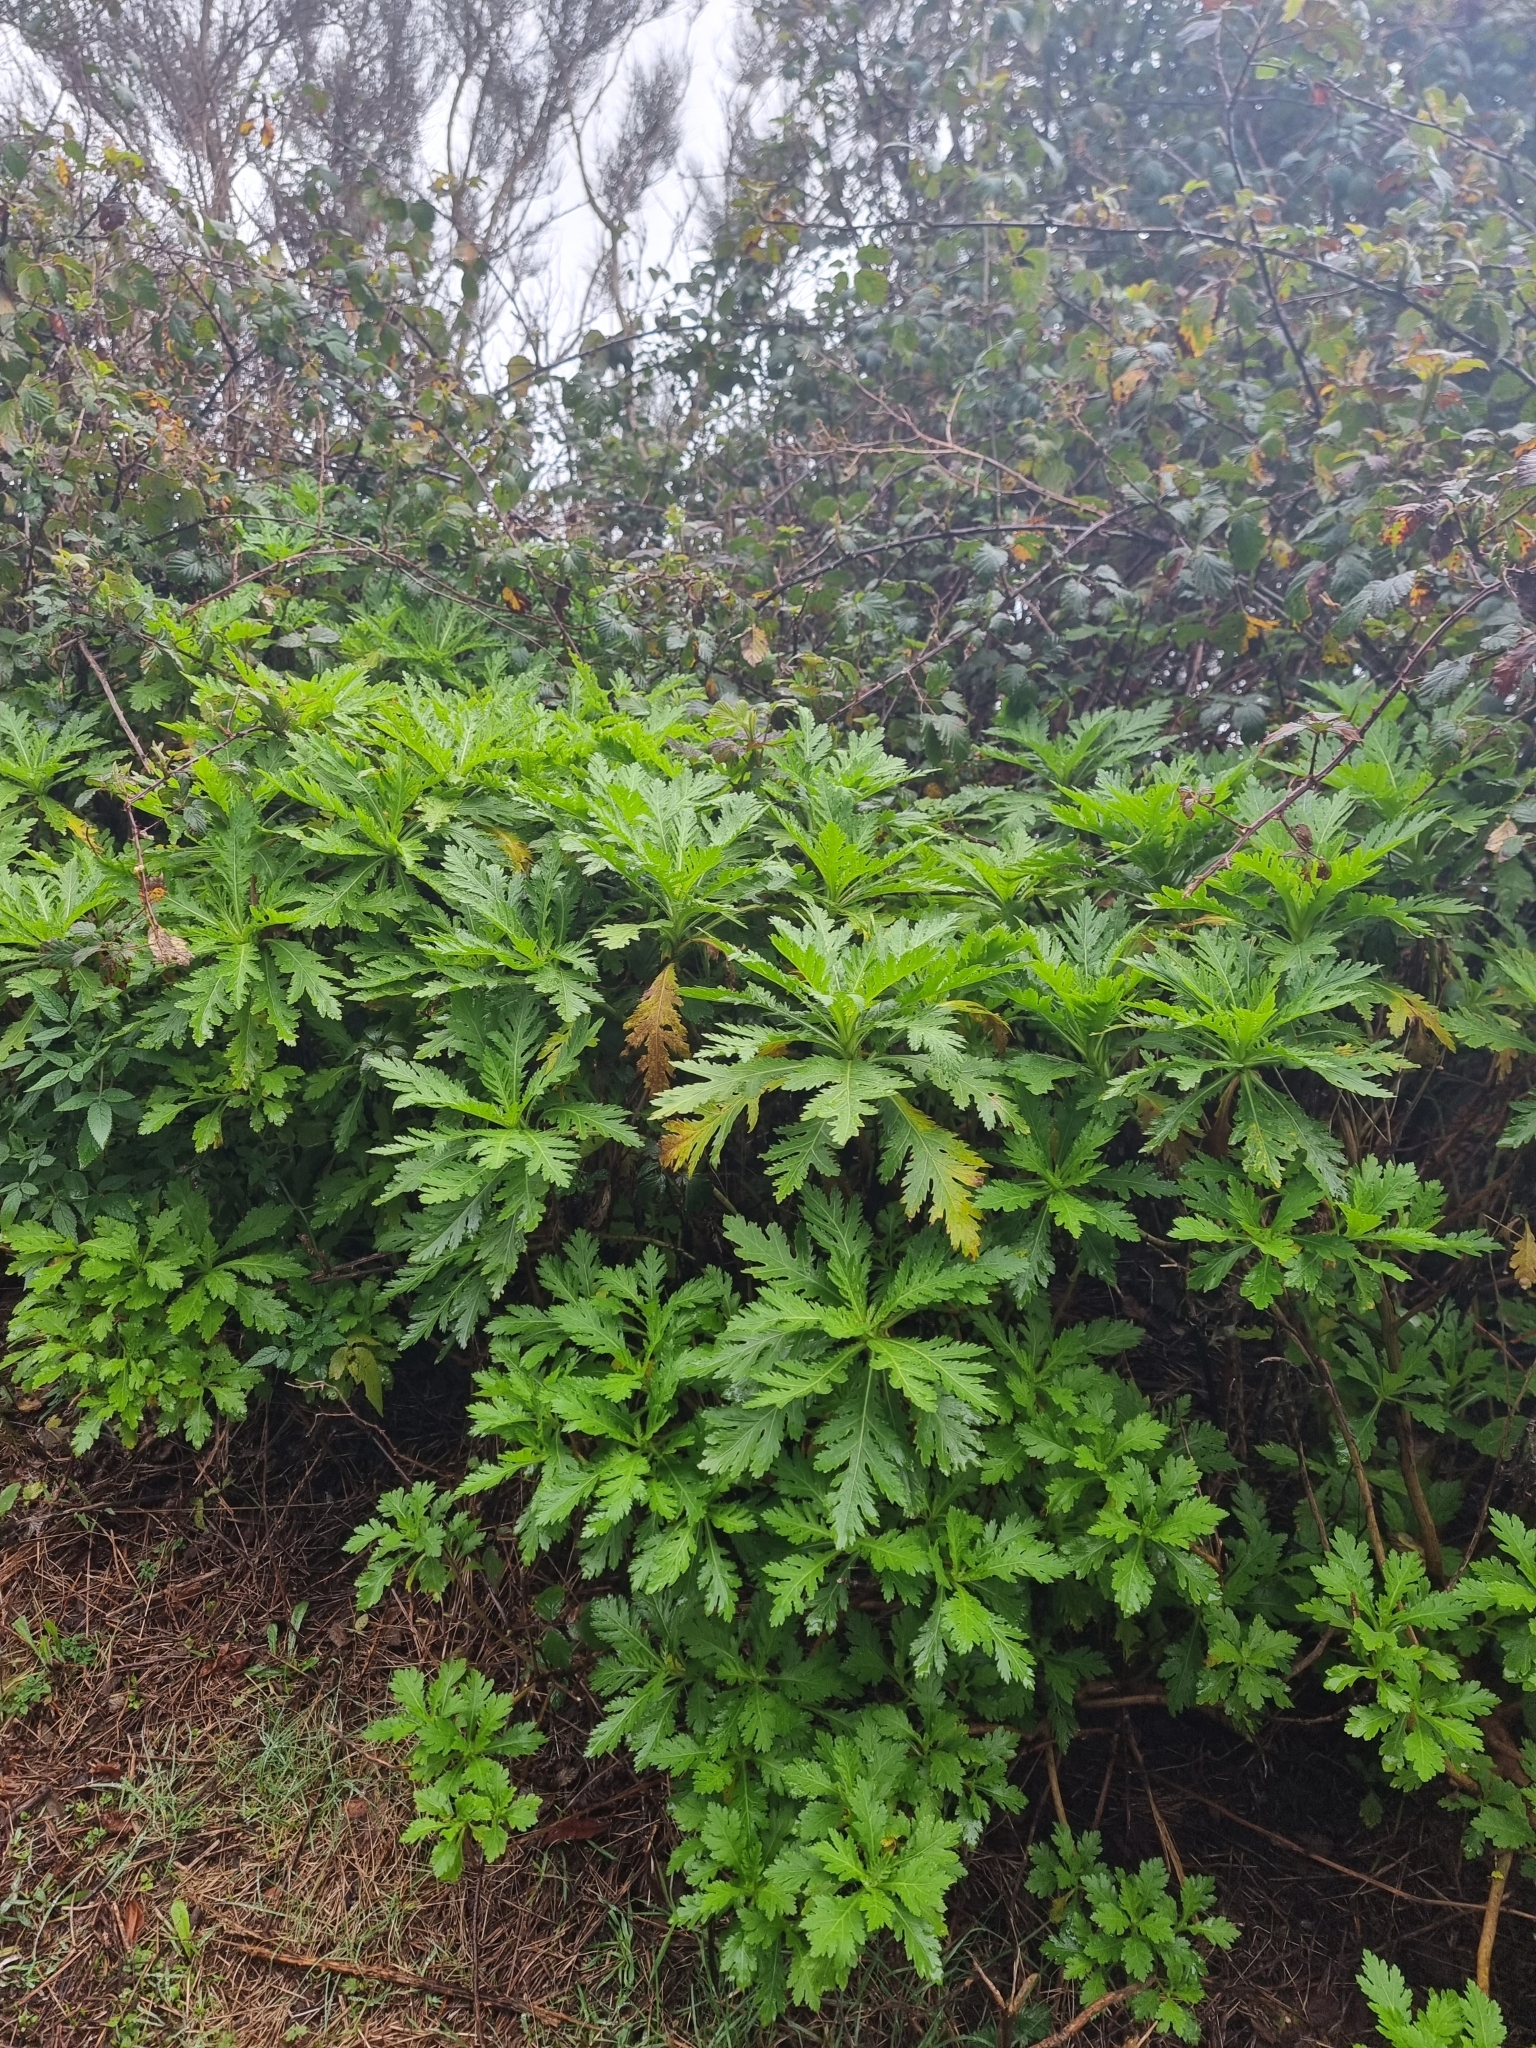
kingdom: Plantae
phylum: Tracheophyta
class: Magnoliopsida
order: Asterales
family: Asteraceae
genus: Argyranthemum
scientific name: Argyranthemum pinnatifidum
